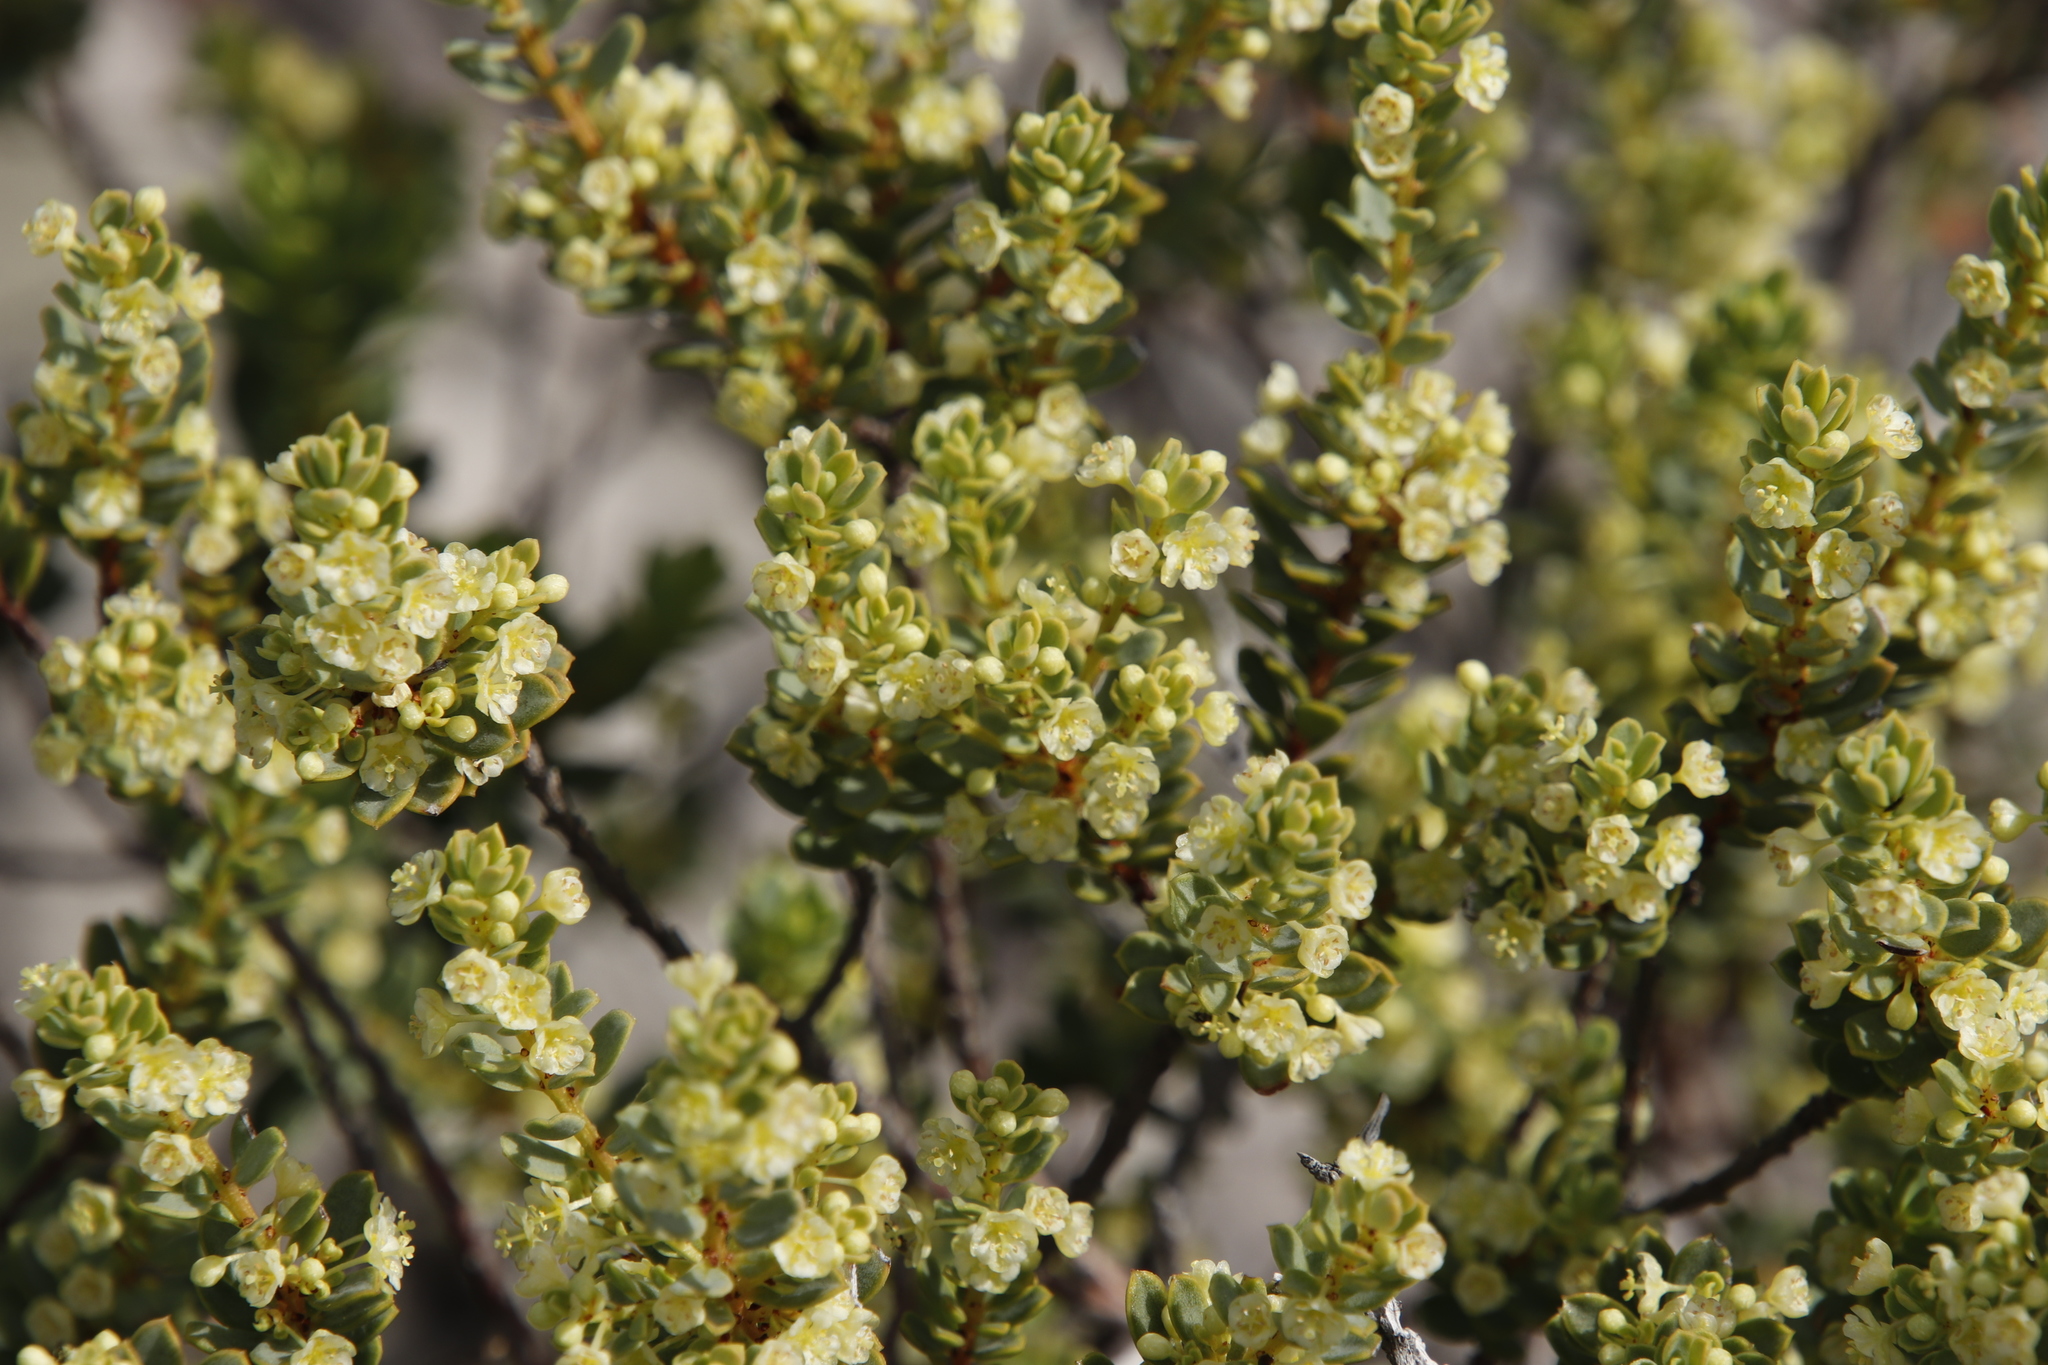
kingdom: Plantae
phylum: Tracheophyta
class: Magnoliopsida
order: Malpighiales
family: Peraceae
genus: Clutia
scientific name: Clutia alaternoides
